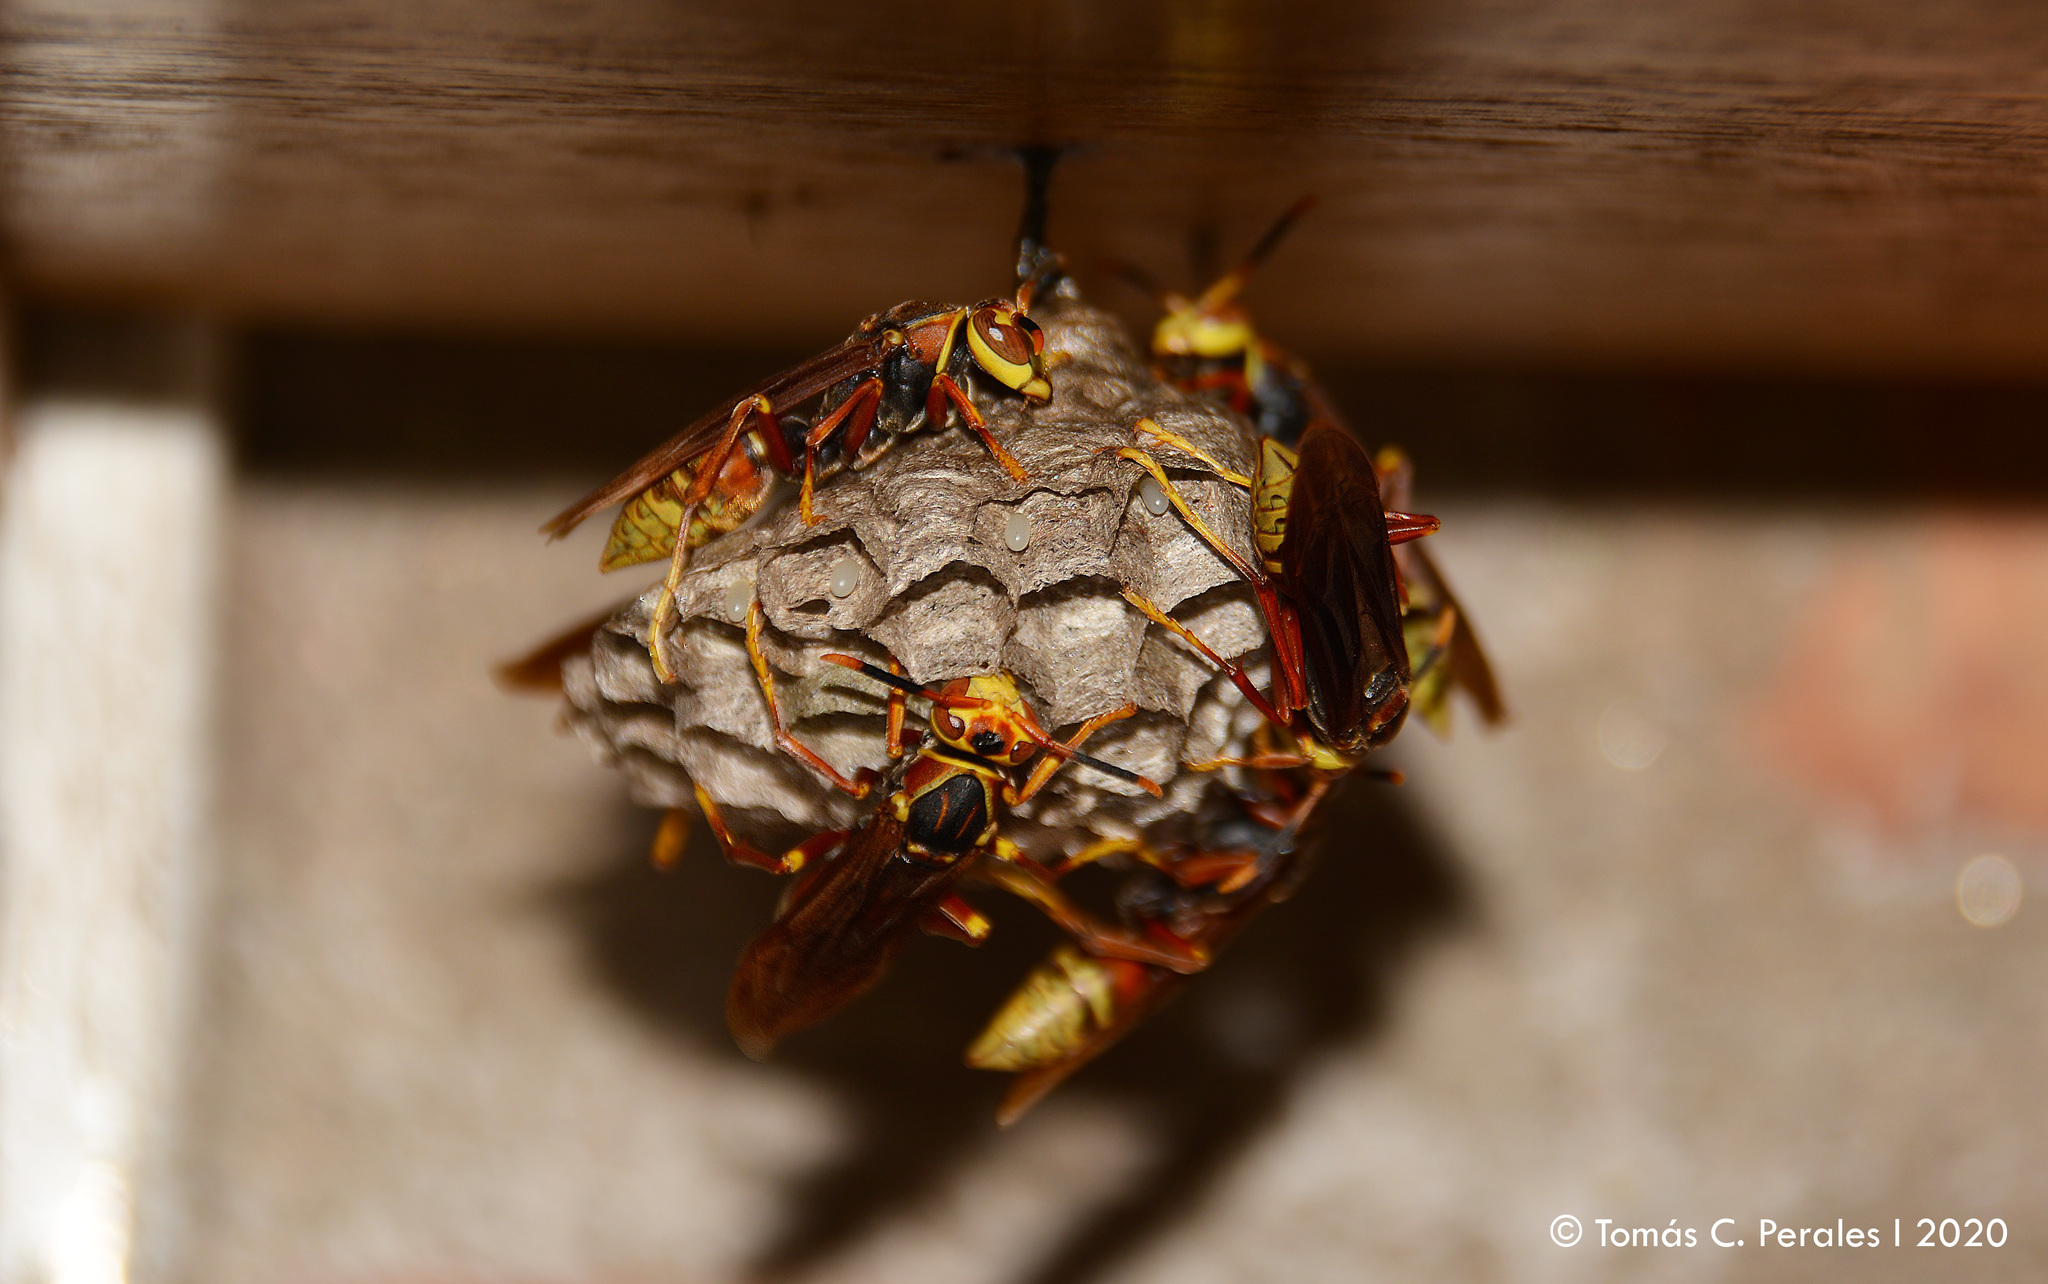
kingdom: Animalia
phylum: Arthropoda
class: Insecta
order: Hymenoptera
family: Eumenidae
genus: Polistes
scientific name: Polistes buyssoni
